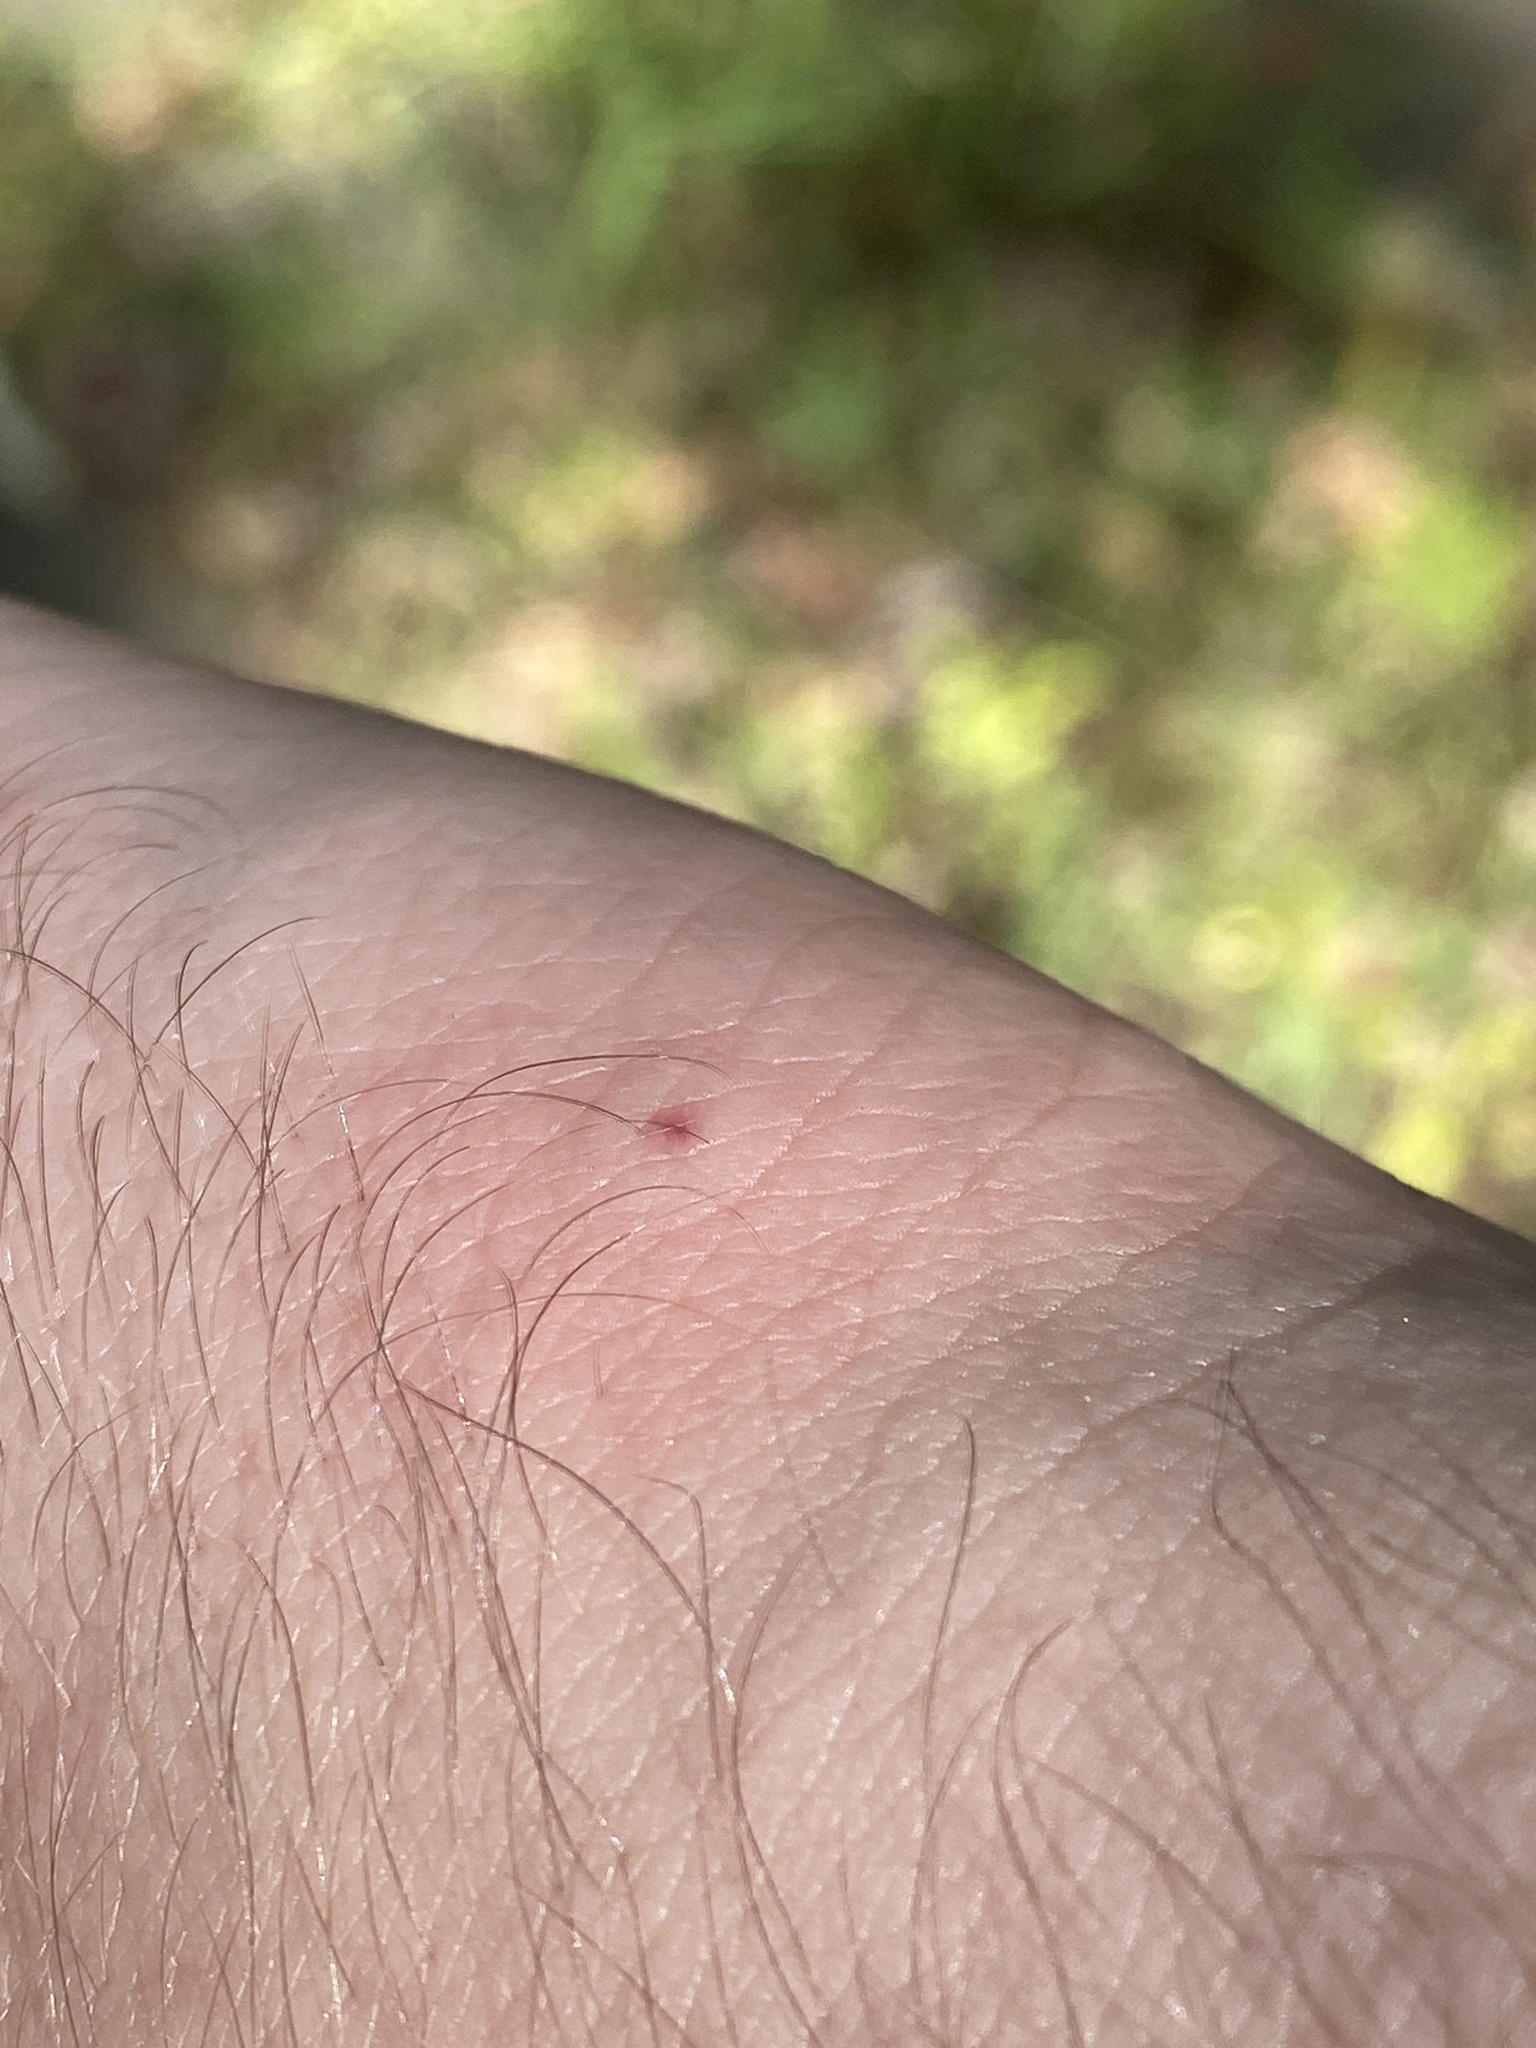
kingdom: Animalia
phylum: Arthropoda
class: Insecta
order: Hemiptera
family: Reduviidae
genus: Melanolestes
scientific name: Melanolestes picipes
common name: Assassin bug
